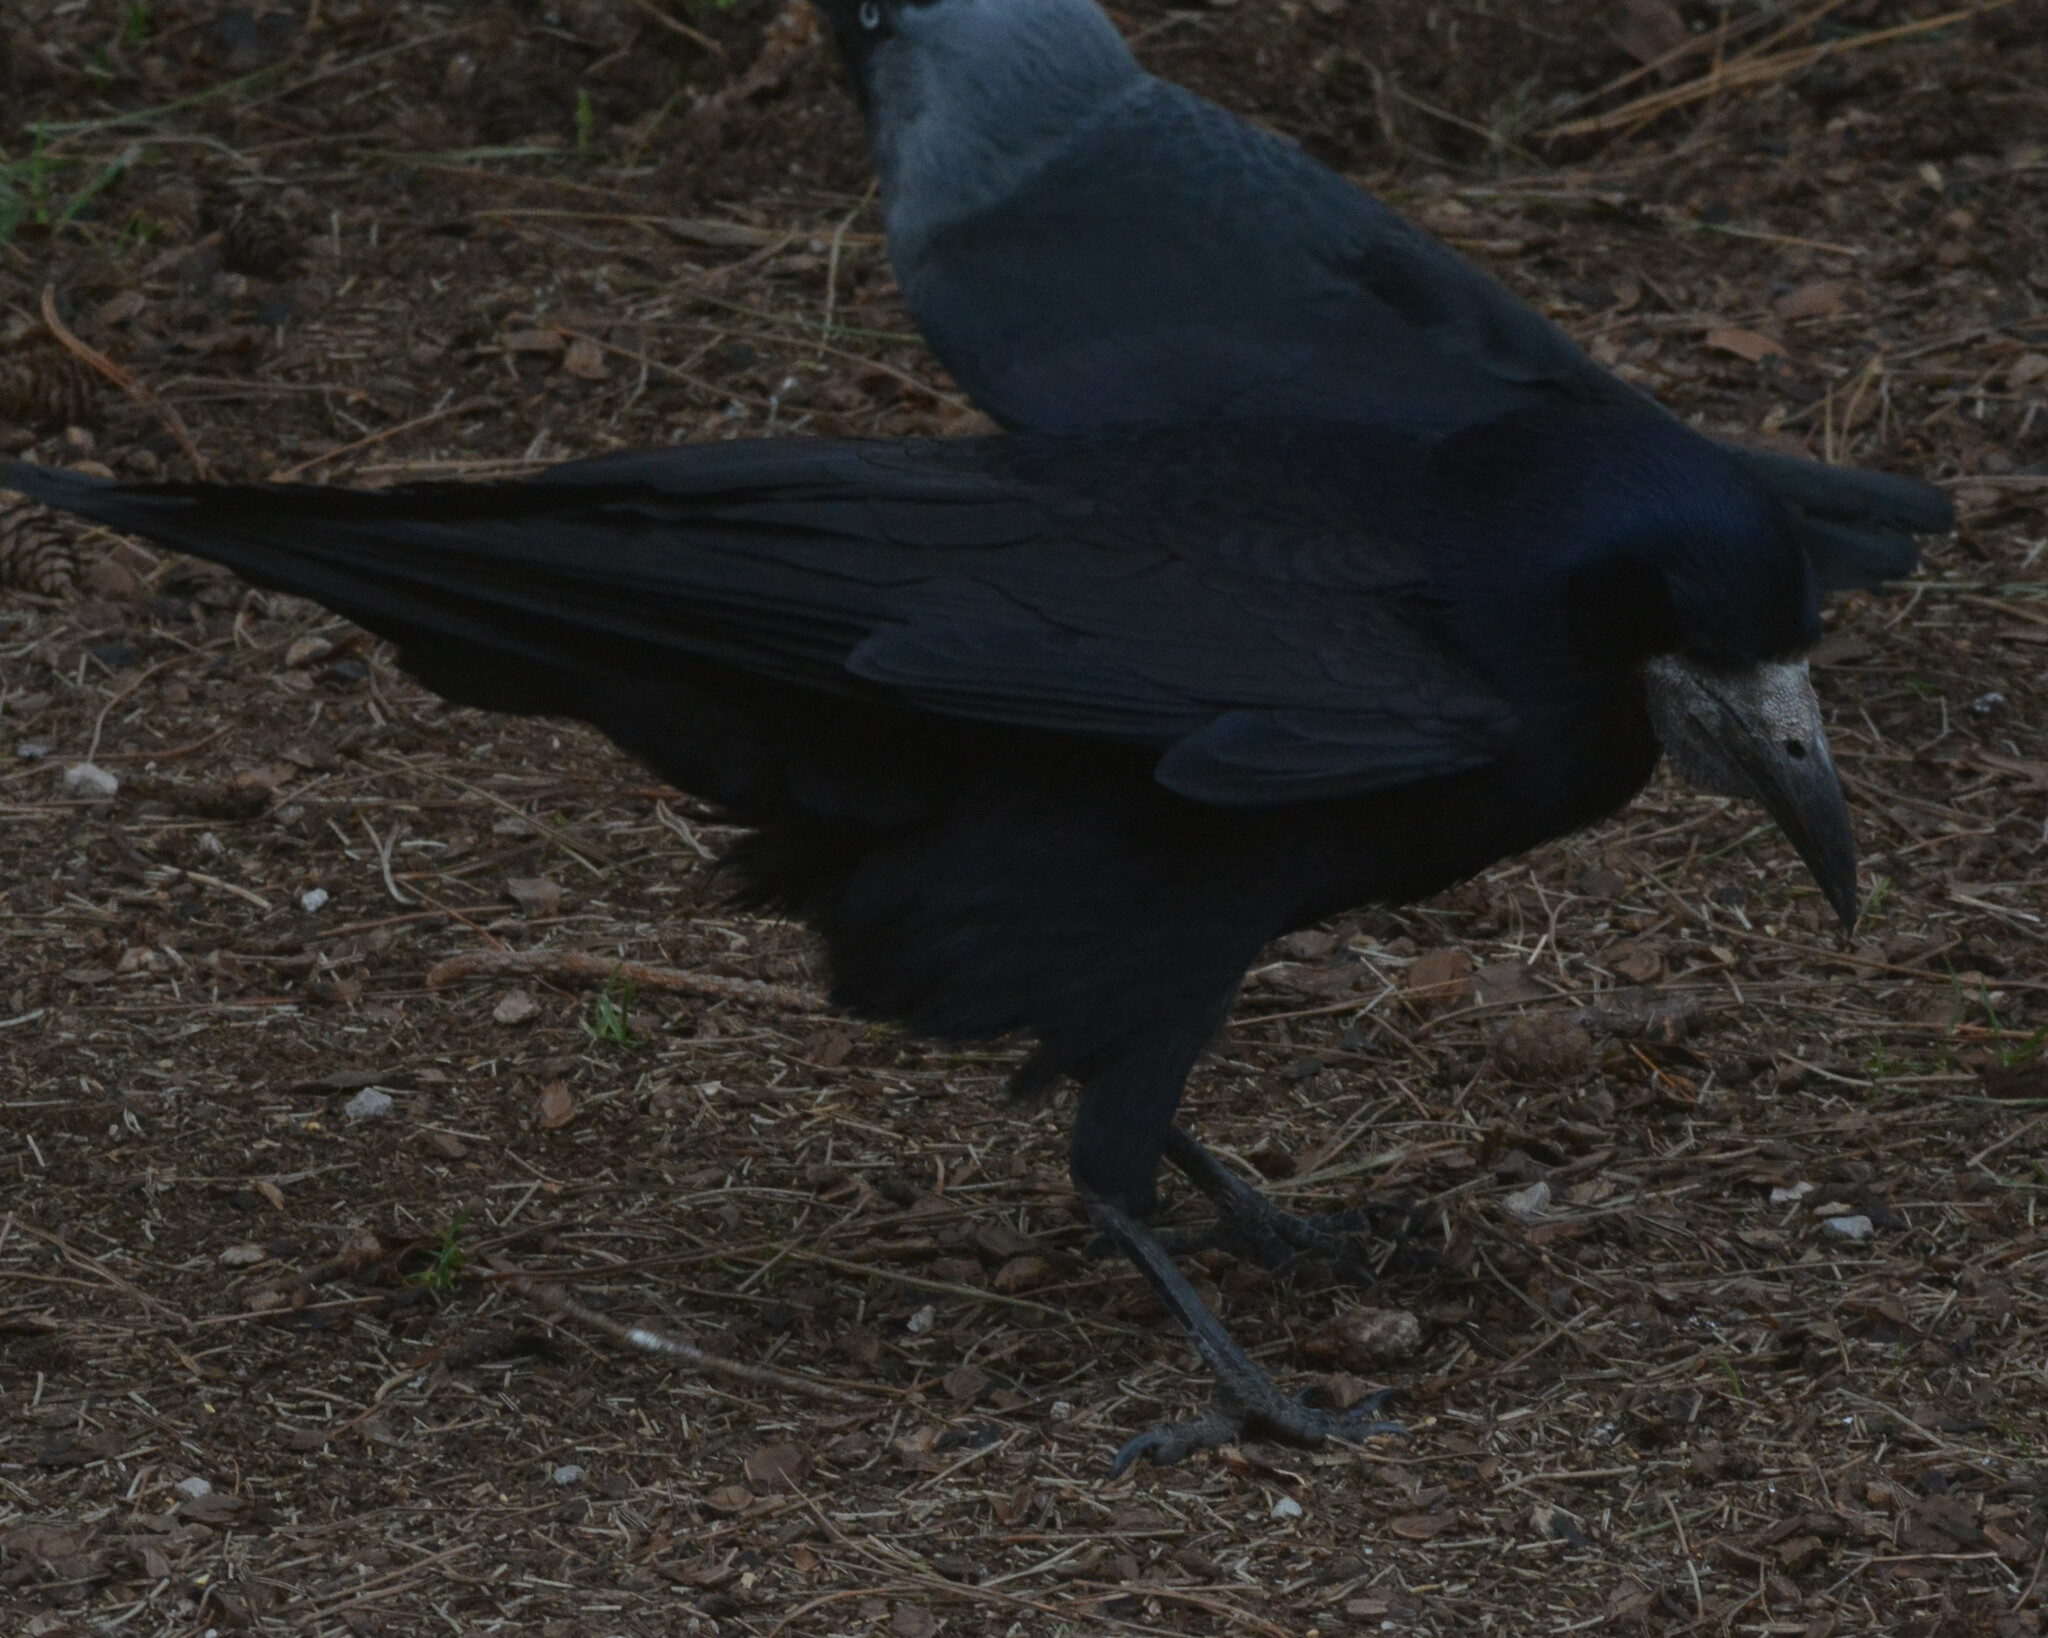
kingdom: Animalia
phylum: Chordata
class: Aves
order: Passeriformes
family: Corvidae
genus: Corvus
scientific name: Corvus frugilegus
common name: Rook
